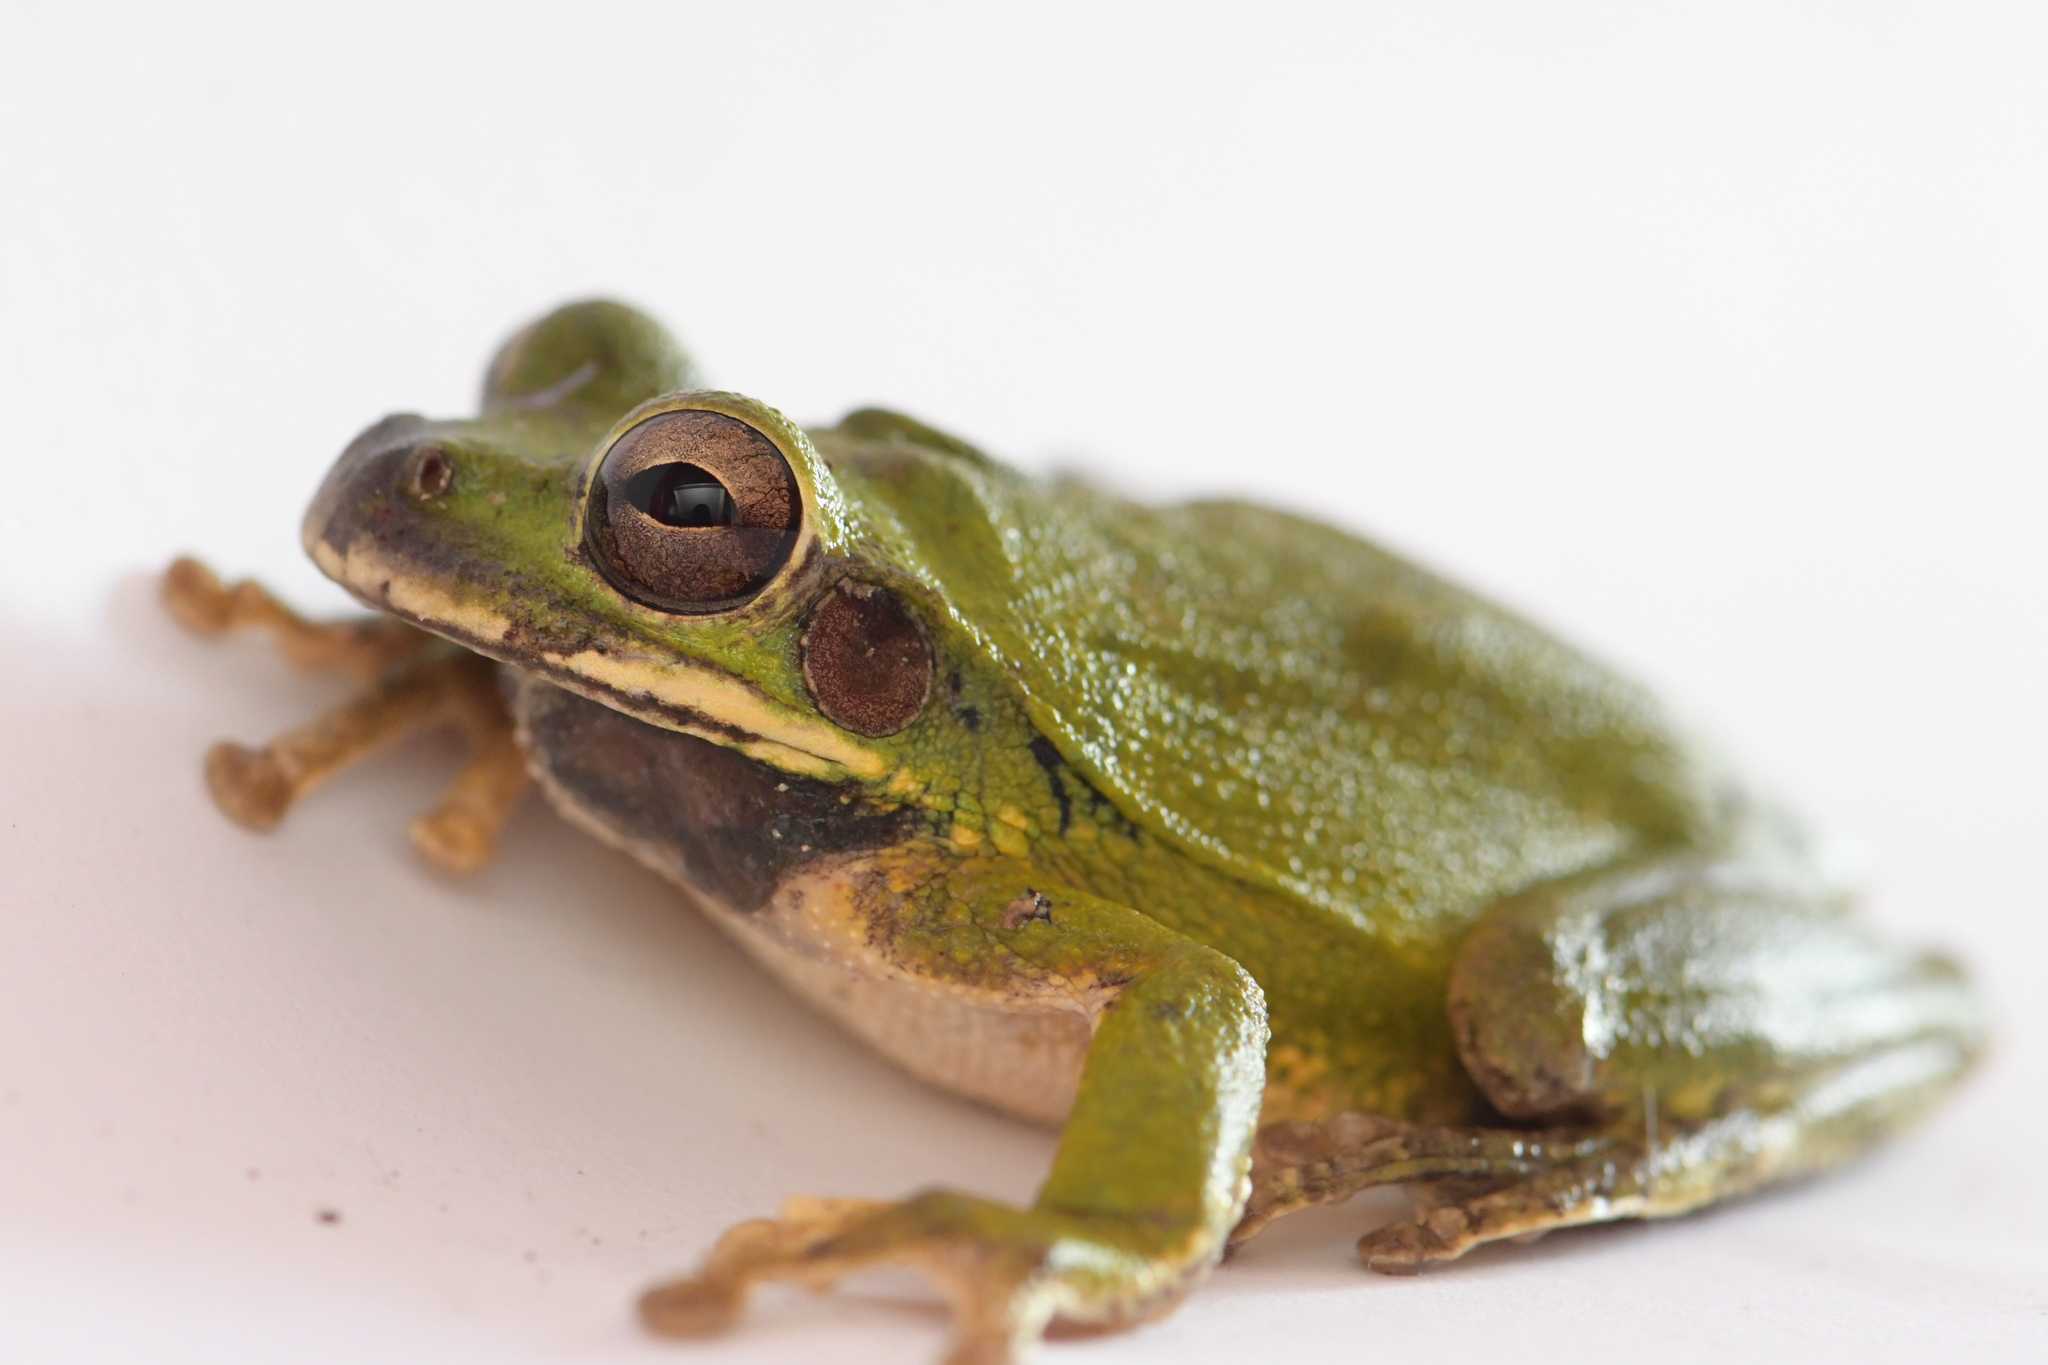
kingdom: Animalia
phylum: Chordata
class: Amphibia
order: Anura
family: Hylidae
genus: Smilisca
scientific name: Smilisca baudinii
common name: Mexican smilisca
